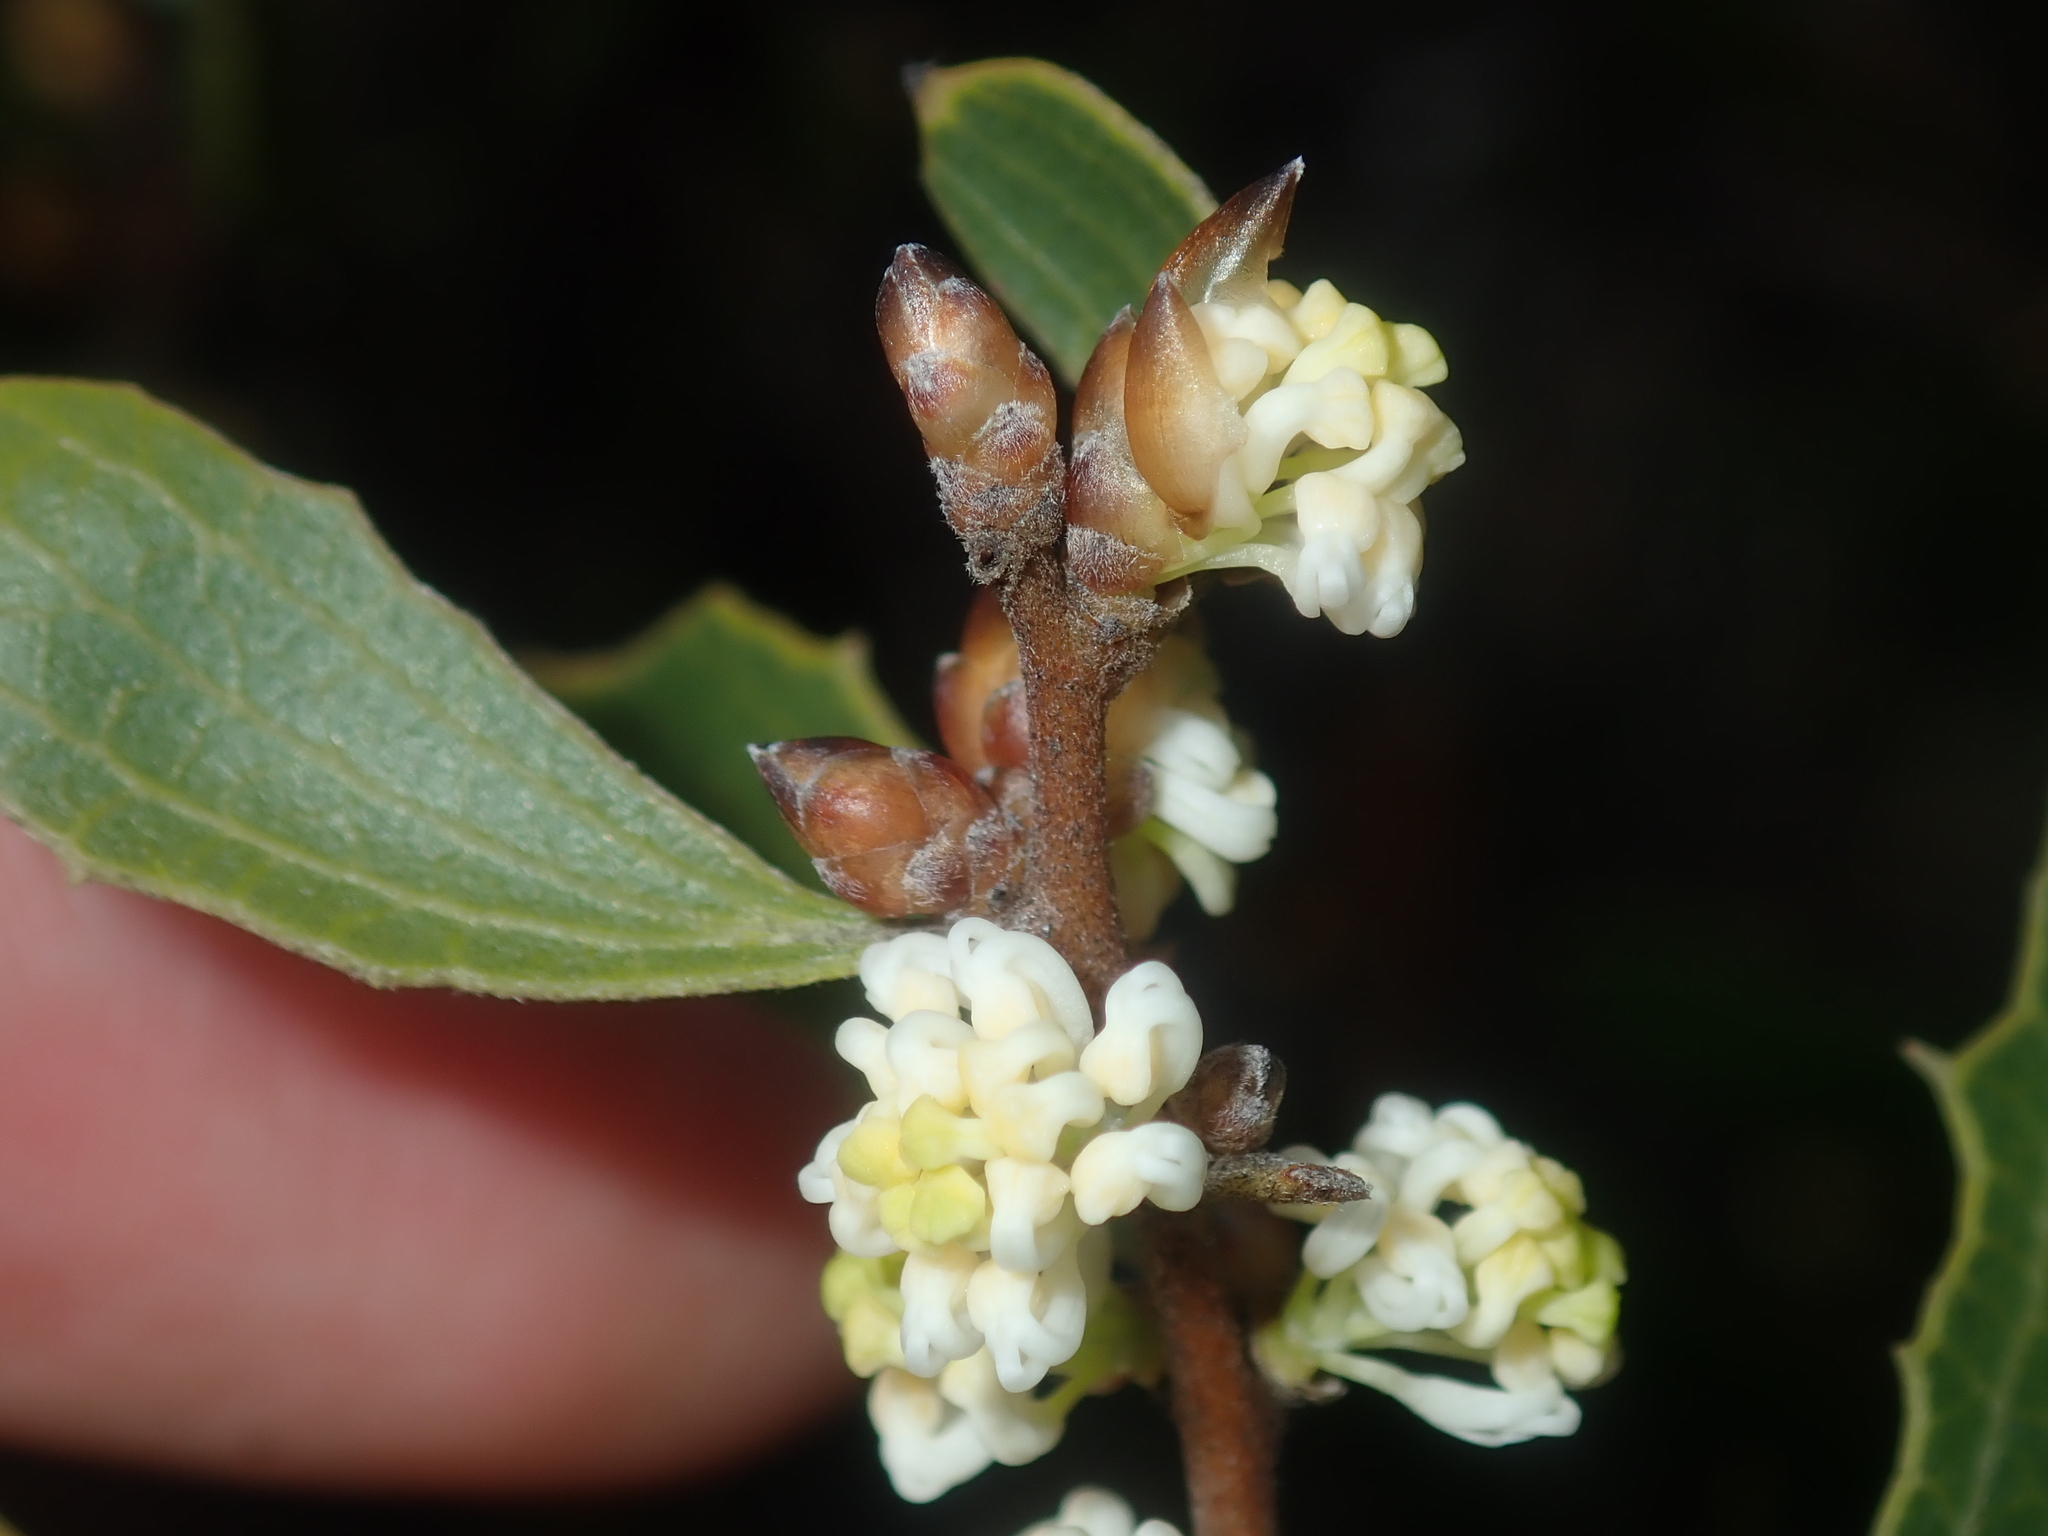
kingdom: Plantae
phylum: Tracheophyta
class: Magnoliopsida
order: Proteales
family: Proteaceae
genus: Hakea
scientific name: Hakea anadenia
